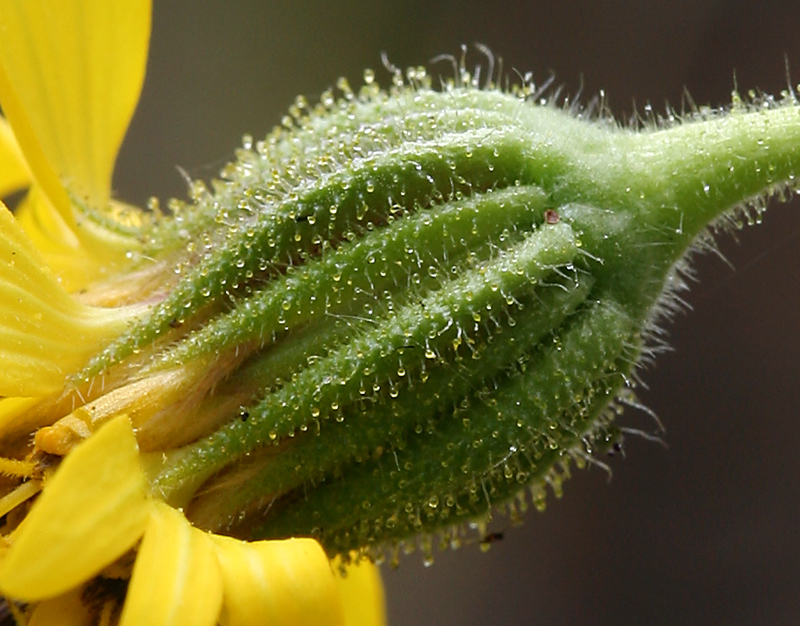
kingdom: Plantae
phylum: Tracheophyta
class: Magnoliopsida
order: Asterales
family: Asteraceae
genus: Kyhosia
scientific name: Kyhosia bolanderi
